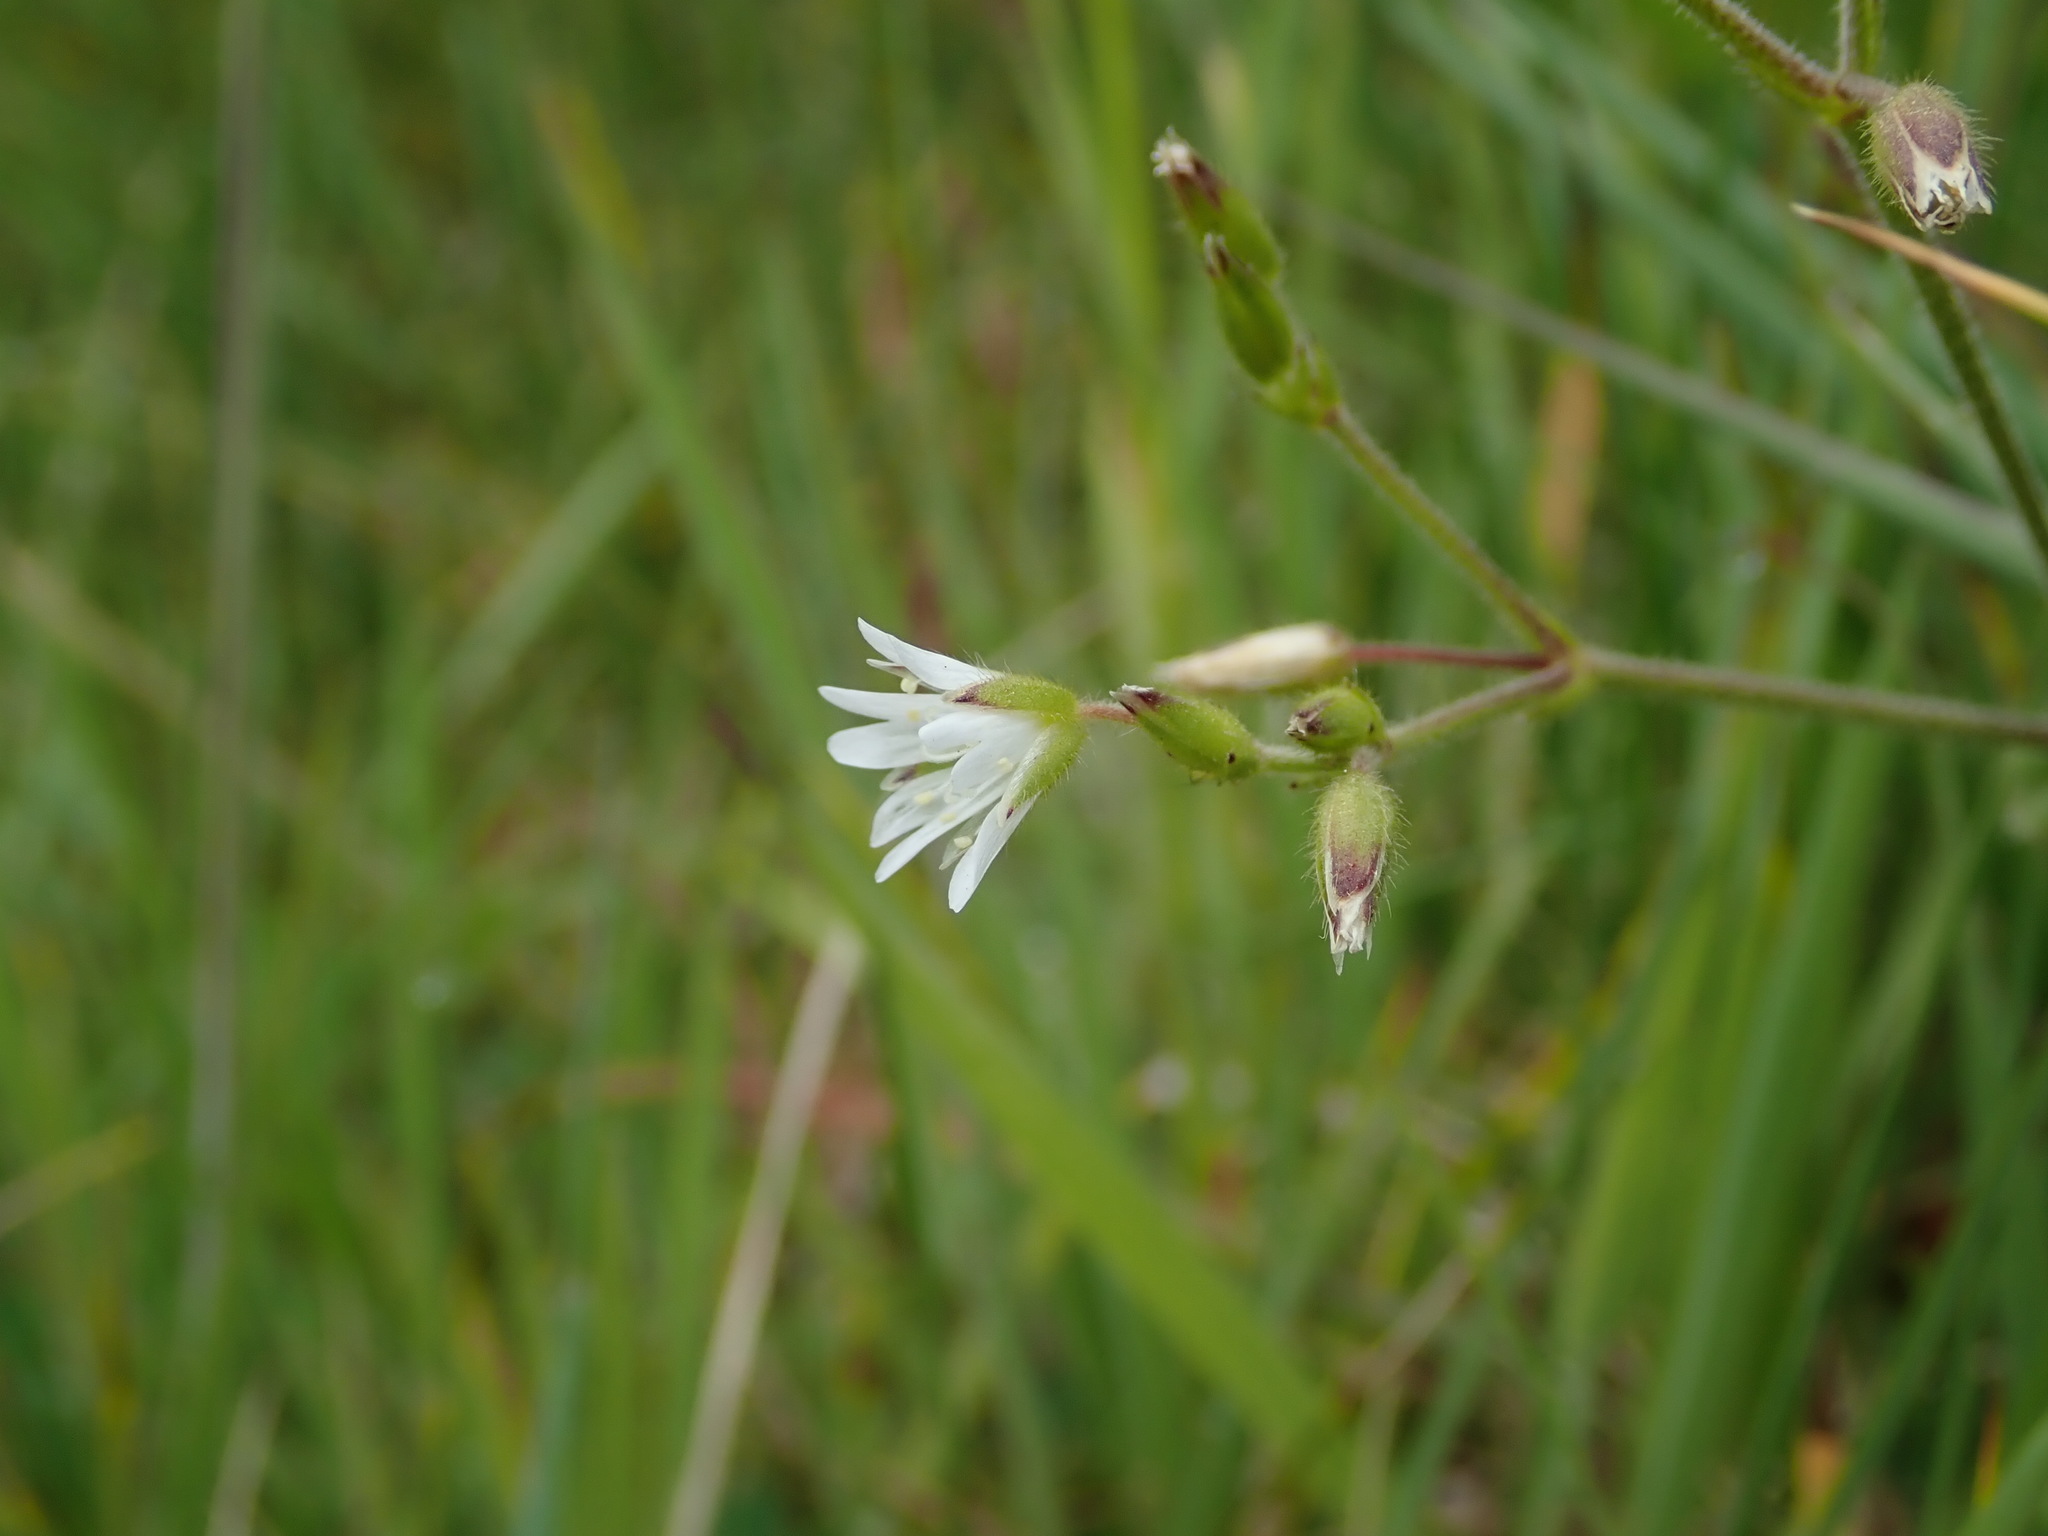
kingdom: Plantae
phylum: Tracheophyta
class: Magnoliopsida
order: Caryophyllales
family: Caryophyllaceae
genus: Cerastium
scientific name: Cerastium fontanum
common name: Common mouse-ear
